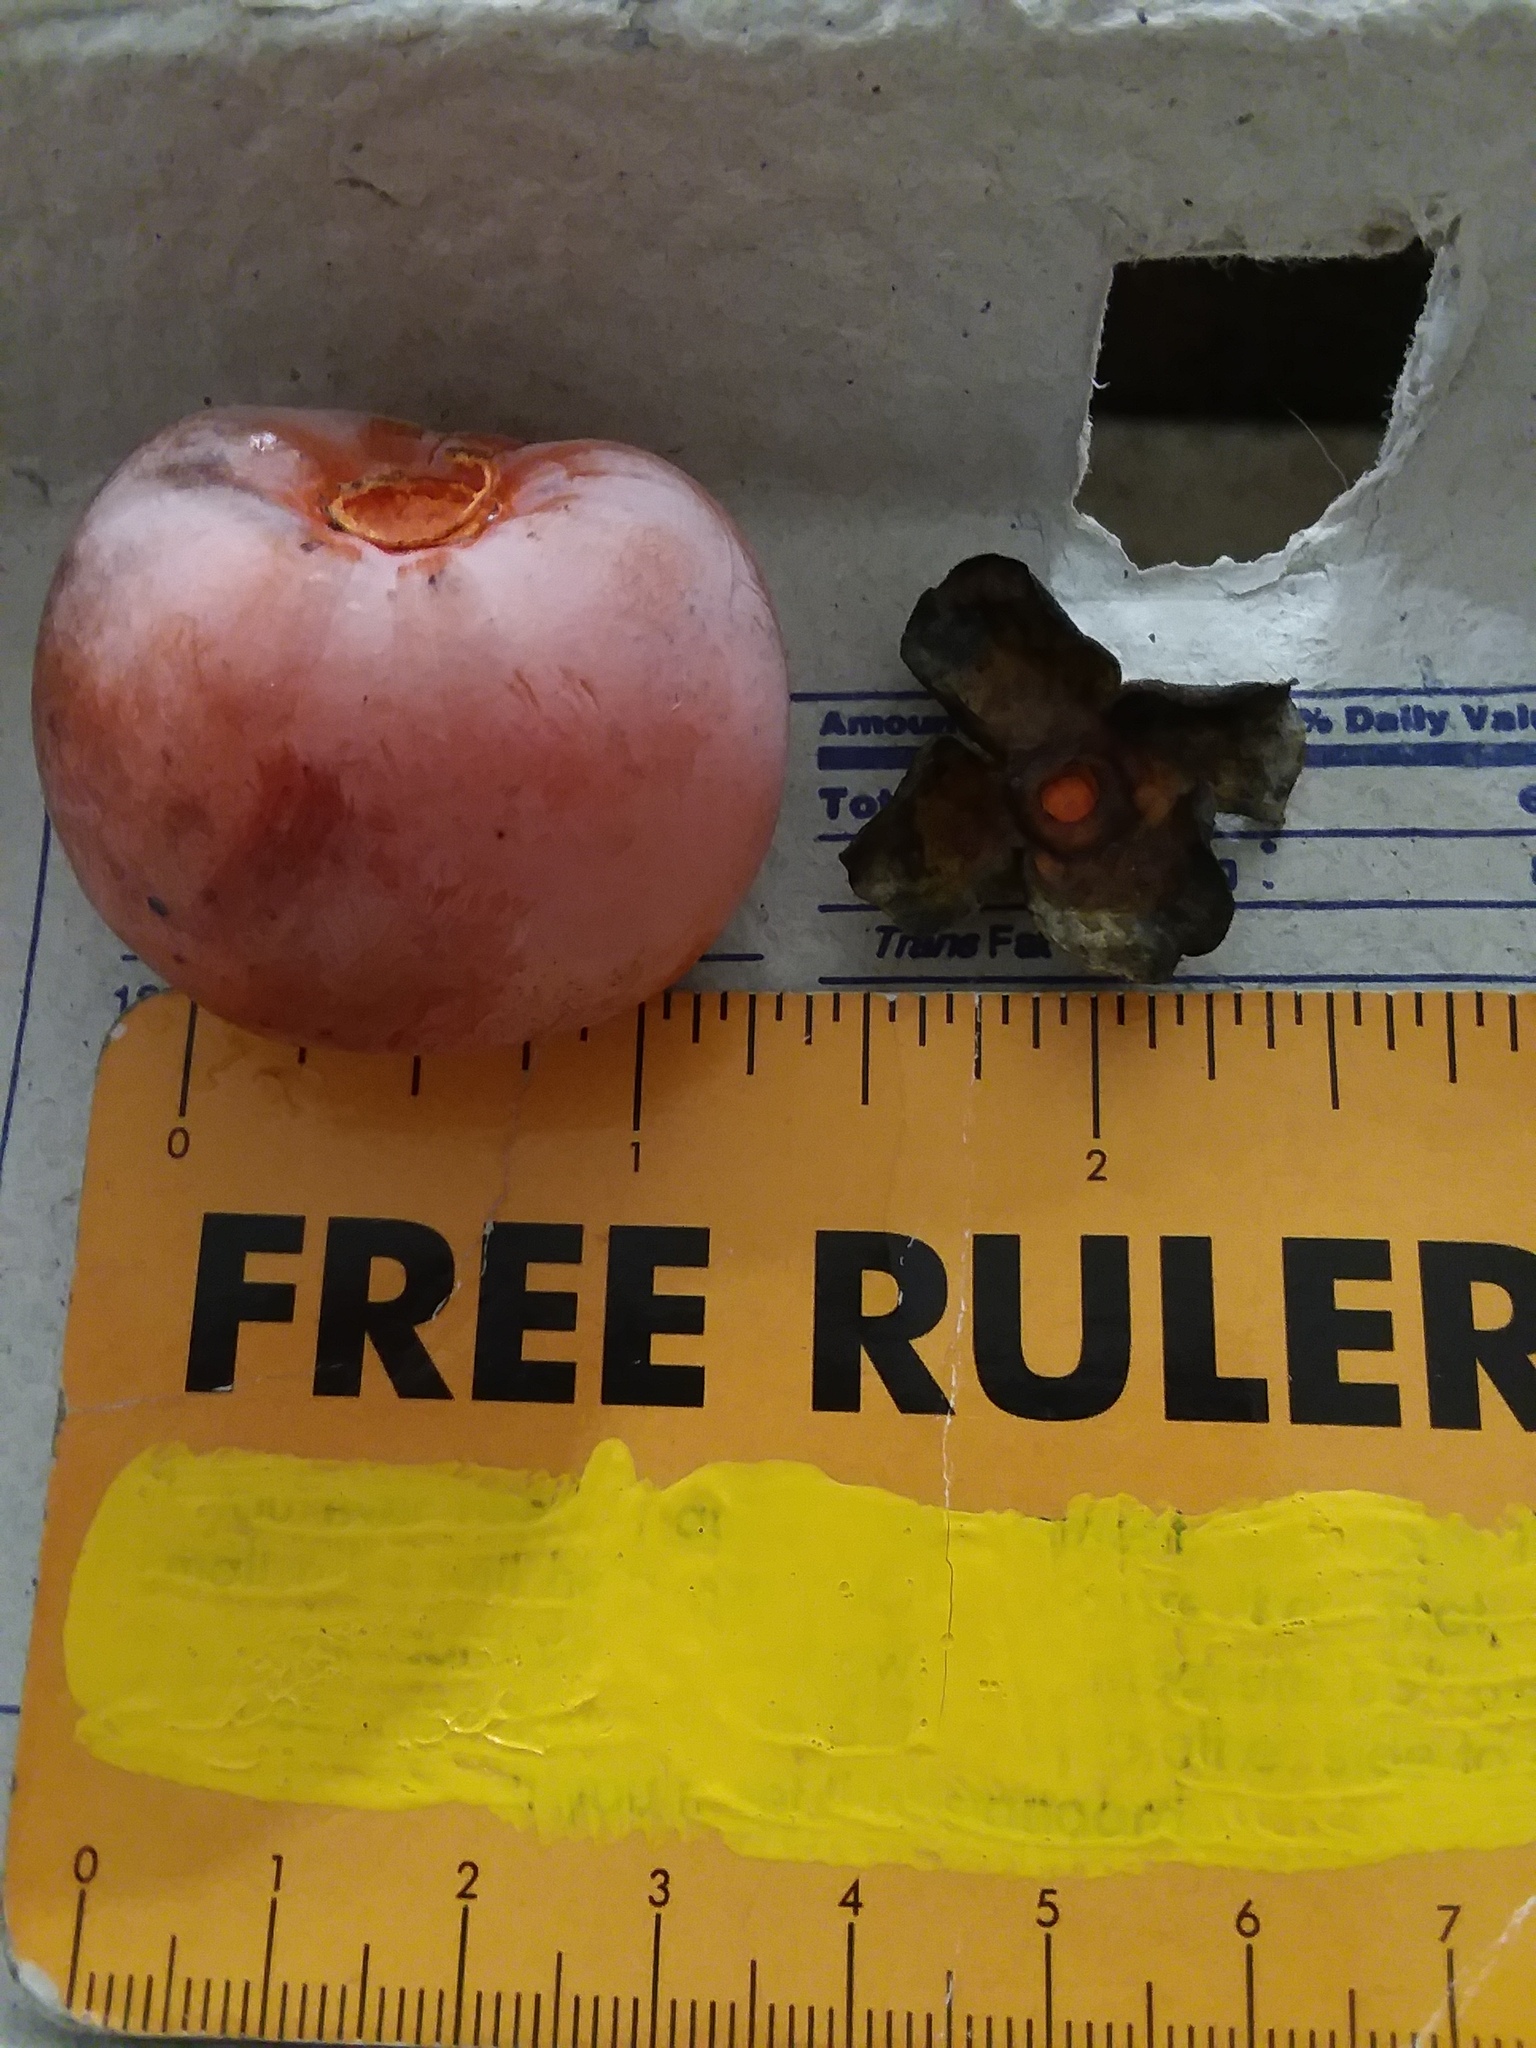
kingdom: Plantae
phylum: Tracheophyta
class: Magnoliopsida
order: Ericales
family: Ebenaceae
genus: Diospyros
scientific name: Diospyros virginiana
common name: Persimmon
